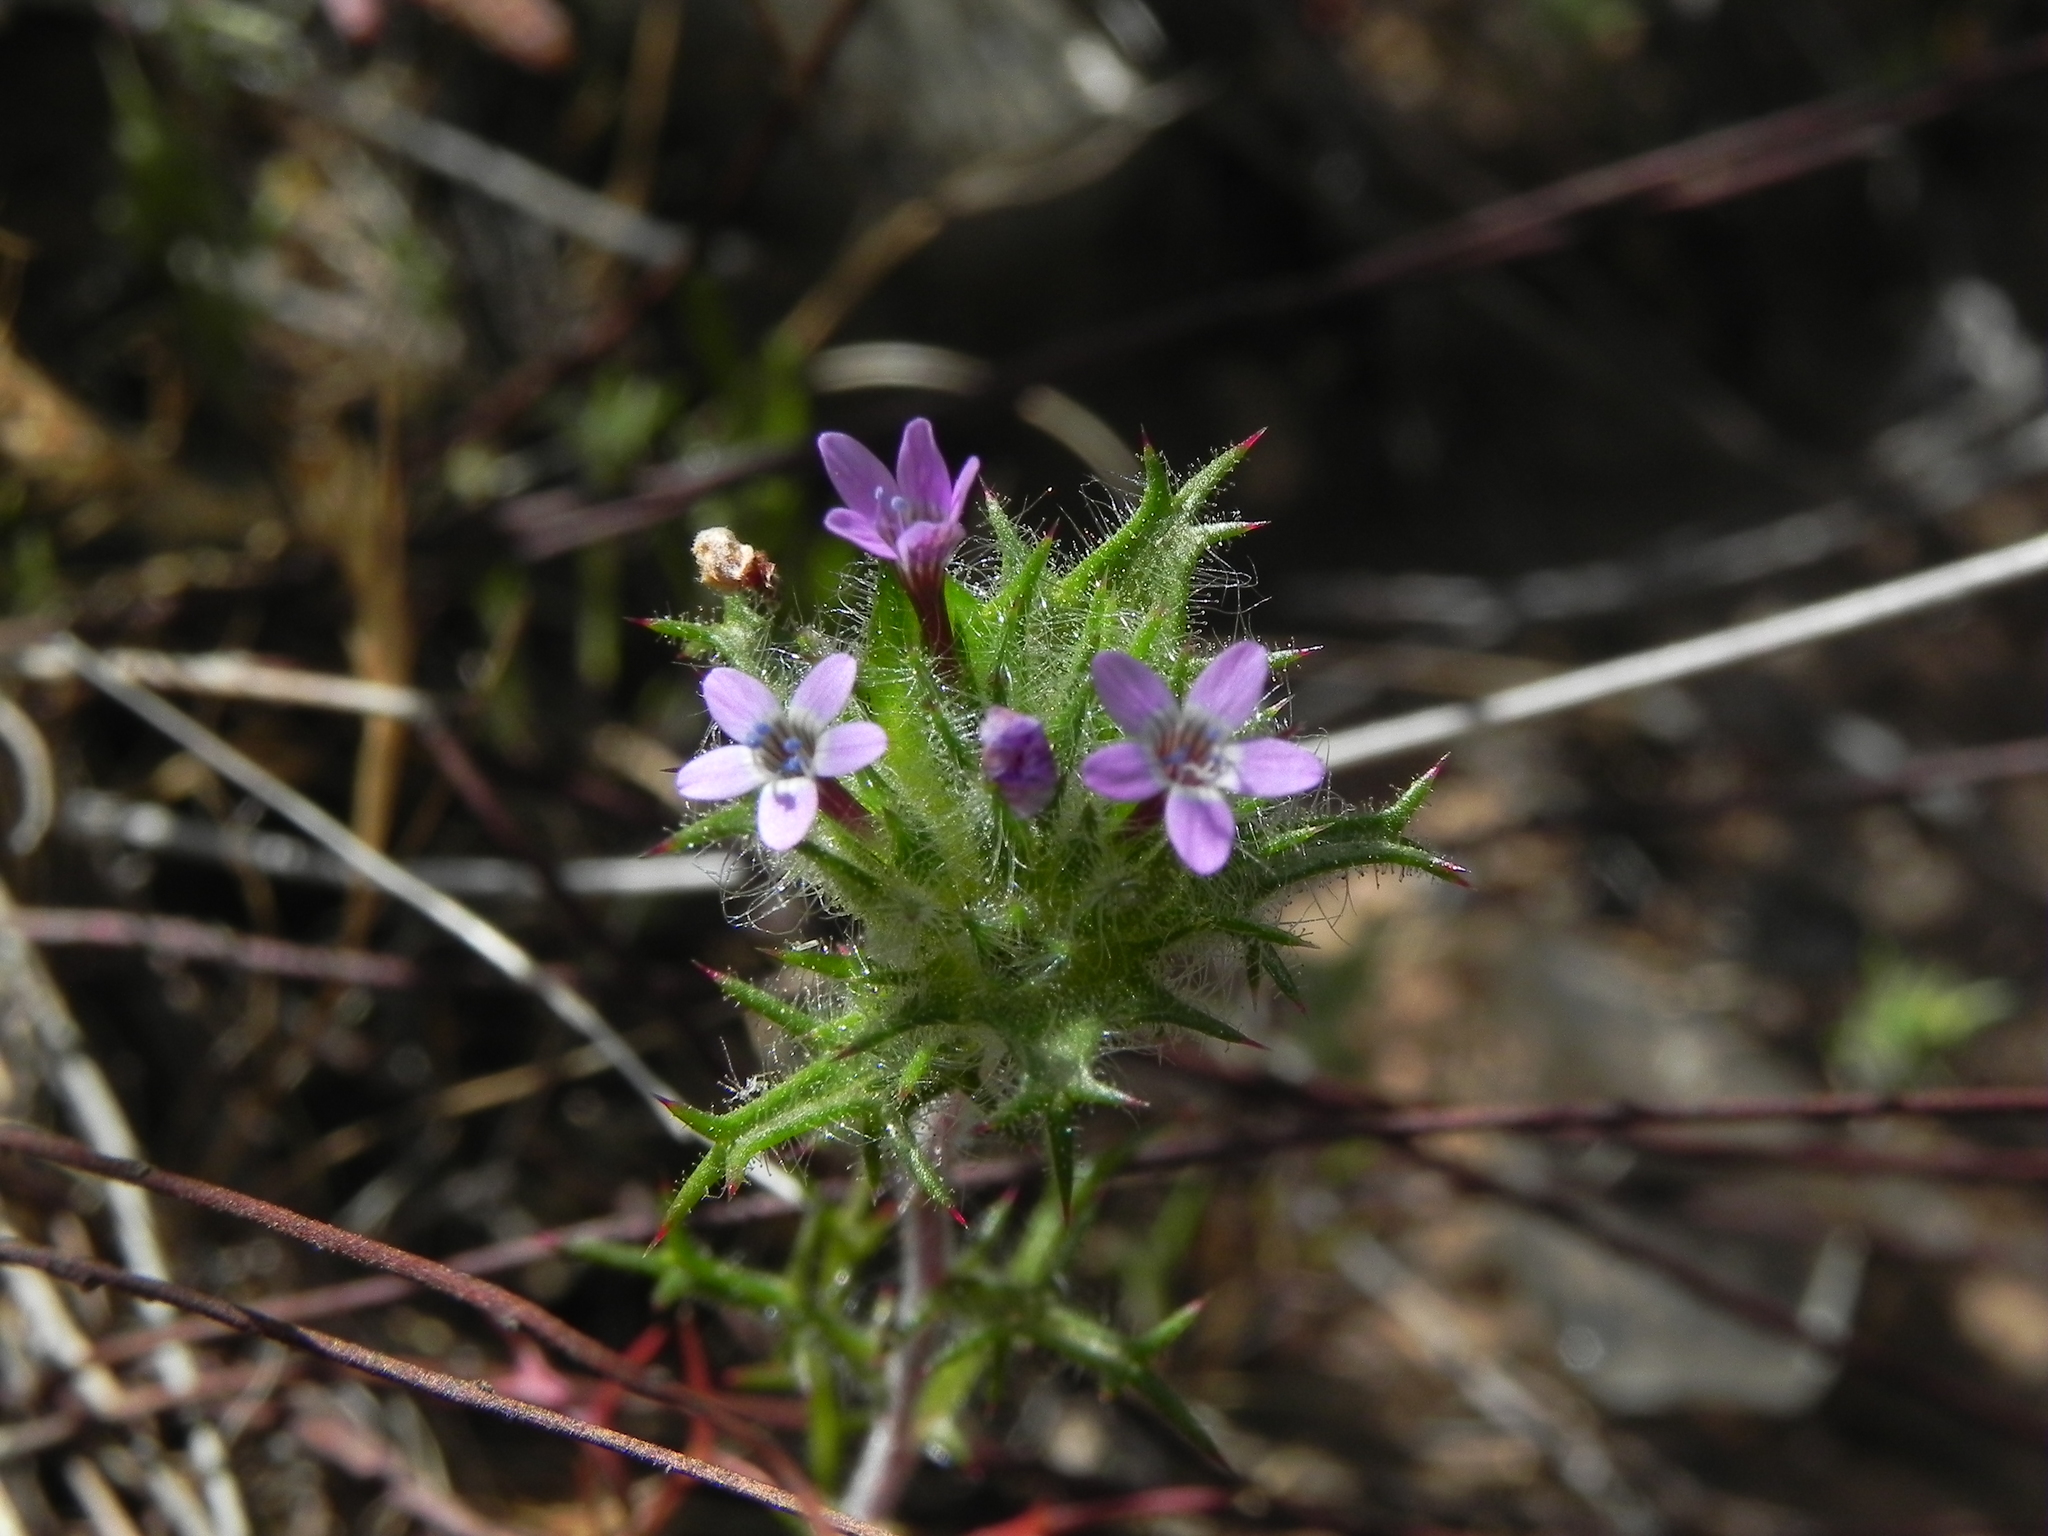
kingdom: Plantae
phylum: Tracheophyta
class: Magnoliopsida
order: Ericales
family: Polemoniaceae
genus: Navarretia
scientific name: Navarretia hamata
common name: Hooked navarretia
